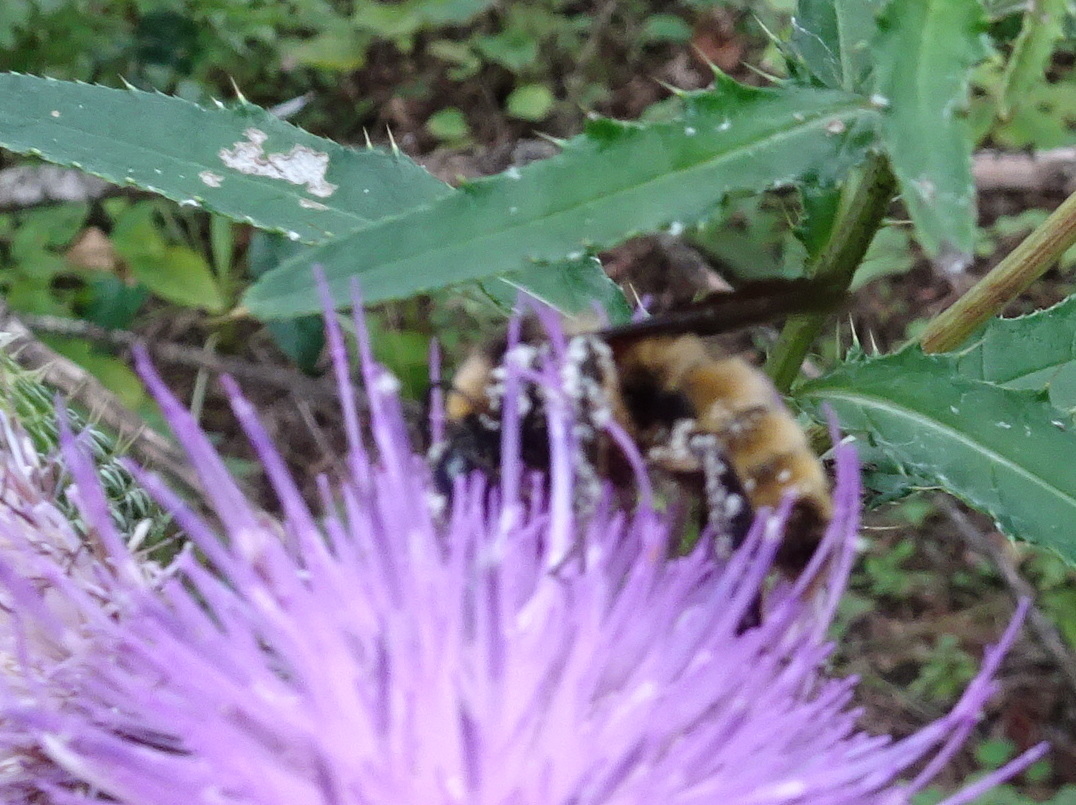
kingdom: Animalia
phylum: Arthropoda
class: Insecta
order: Hymenoptera
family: Apidae
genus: Bombus
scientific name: Bombus pensylvanicus
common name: Bumble bee
